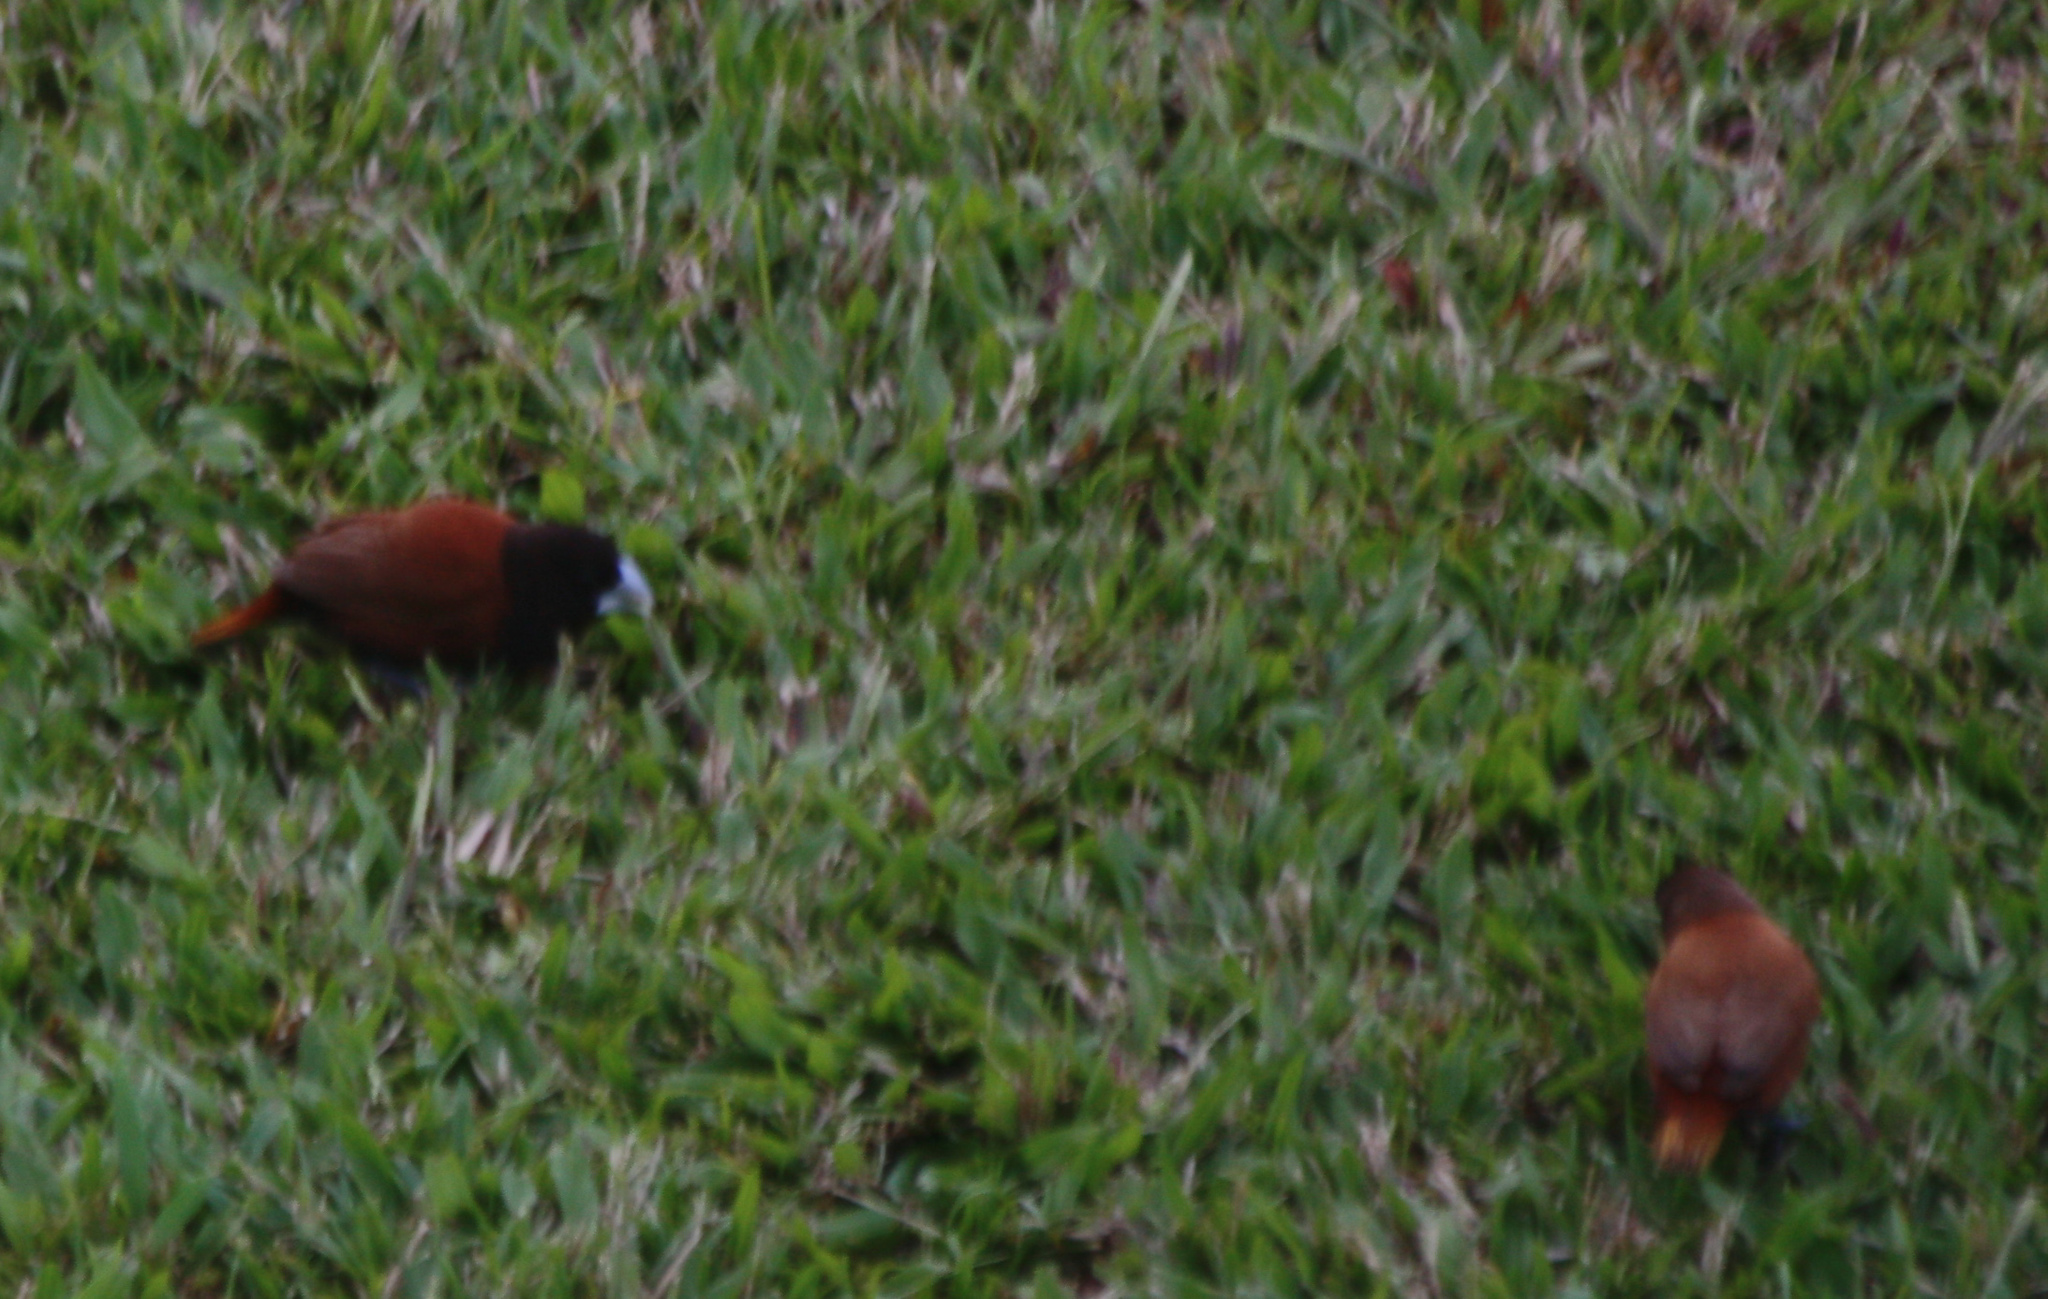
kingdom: Animalia
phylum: Chordata
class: Aves
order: Passeriformes
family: Estrildidae
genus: Lonchura
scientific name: Lonchura atricapilla
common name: Chestnut munia
